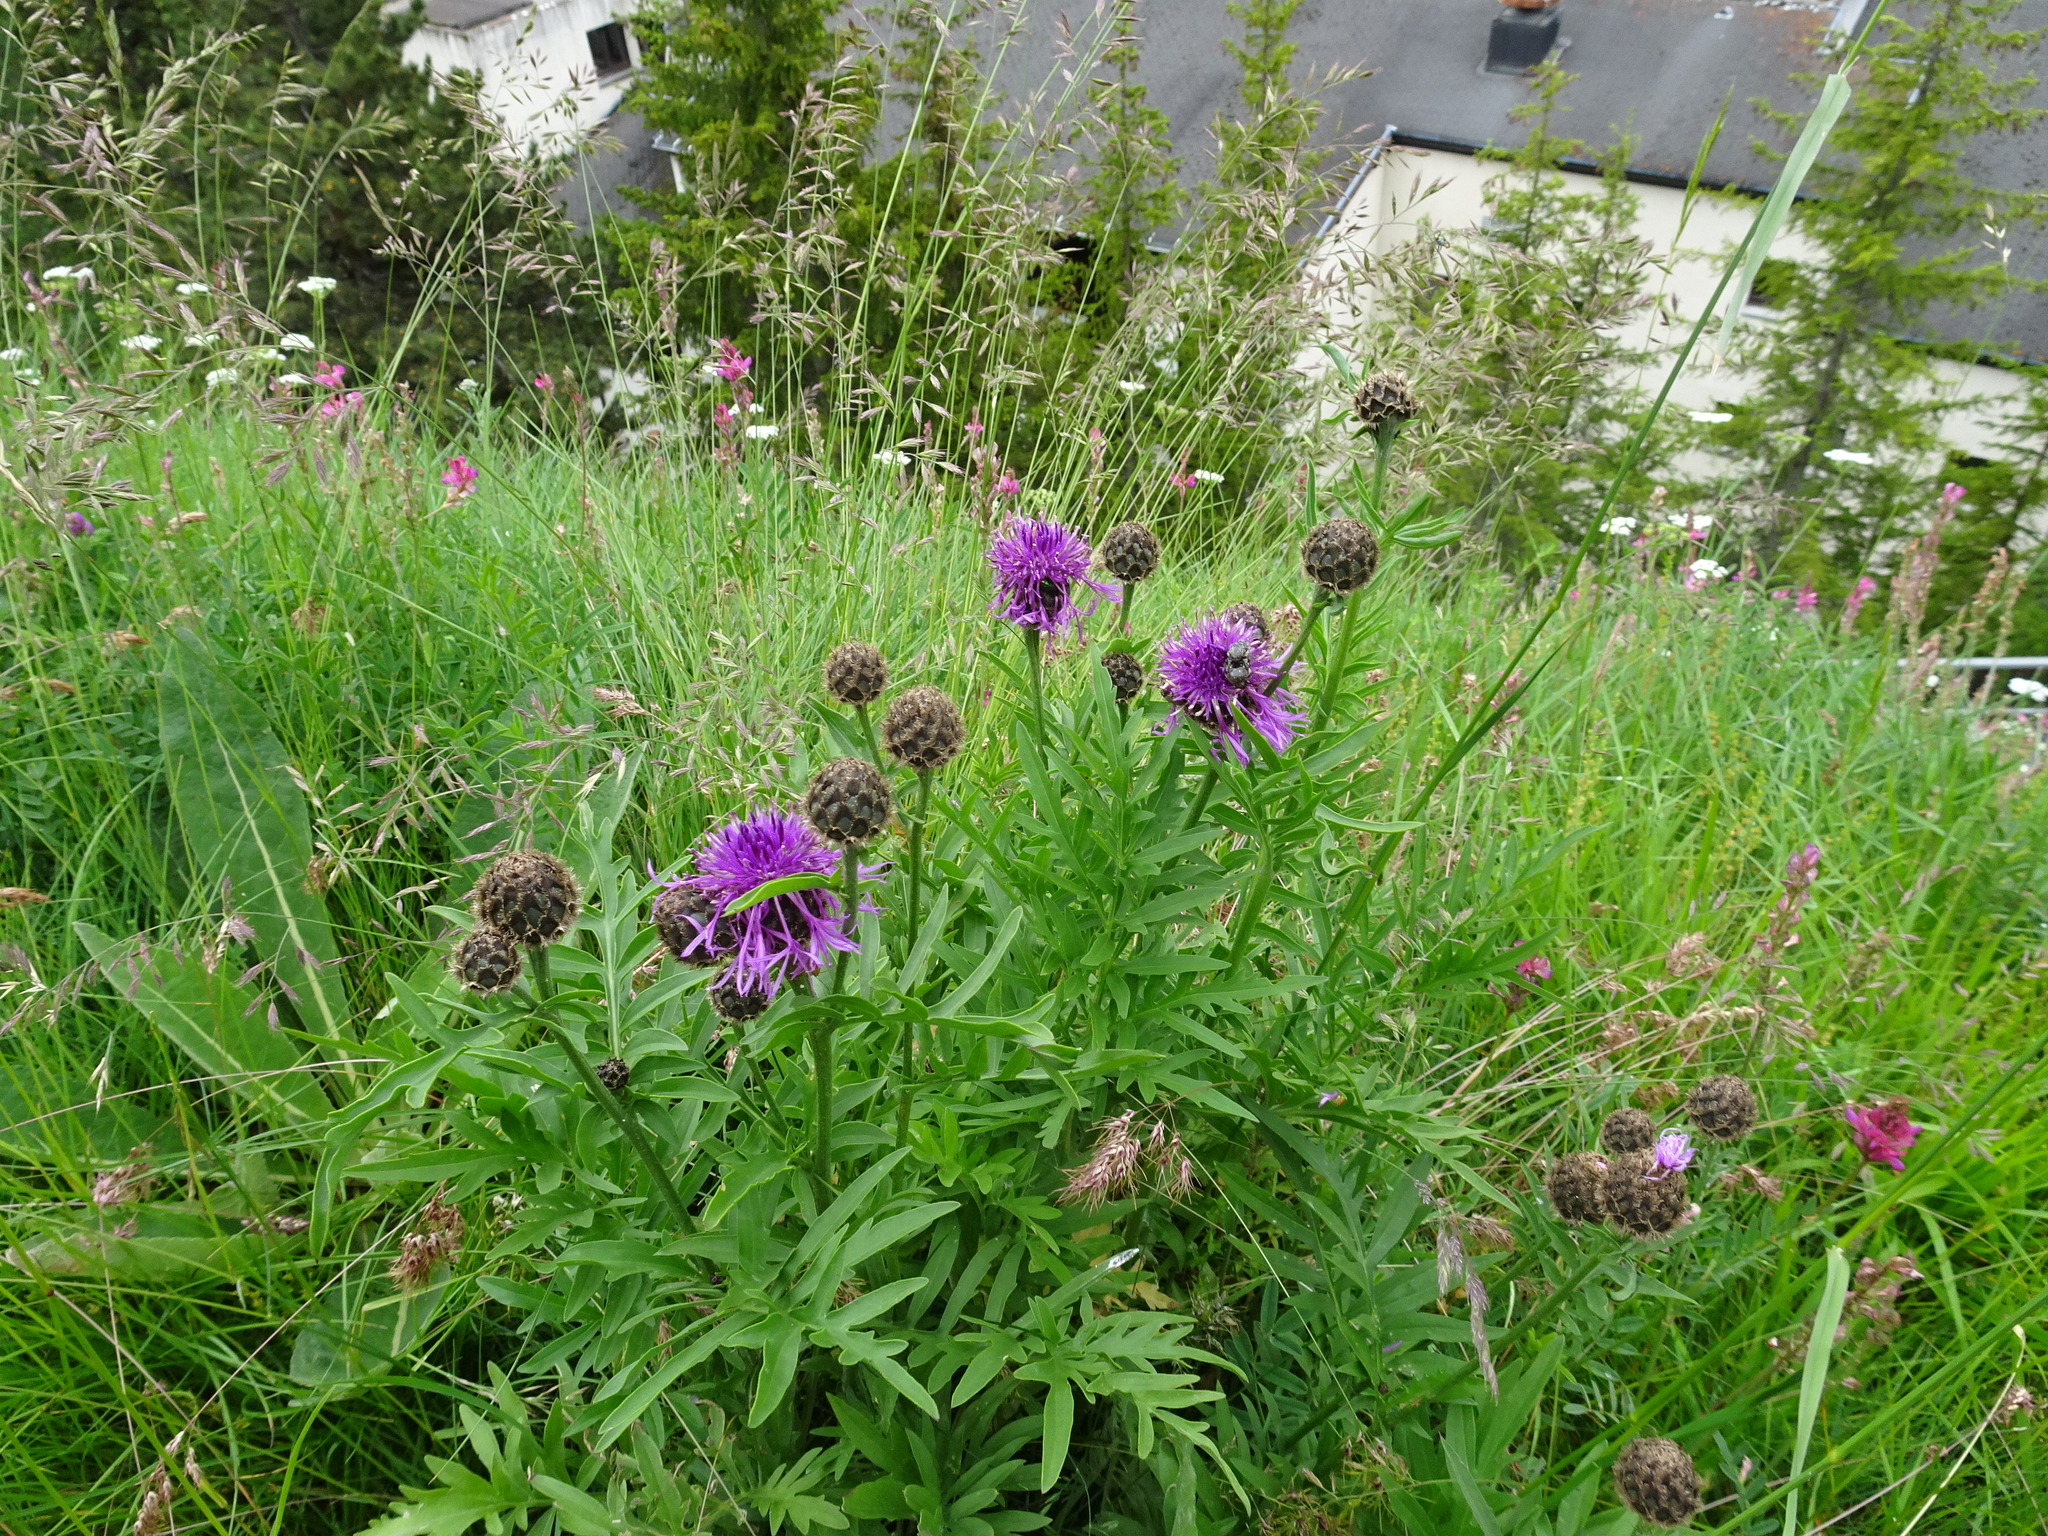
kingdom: Plantae
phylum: Tracheophyta
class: Magnoliopsida
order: Asterales
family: Asteraceae
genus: Centaurea
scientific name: Centaurea scabiosa
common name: Greater knapweed
